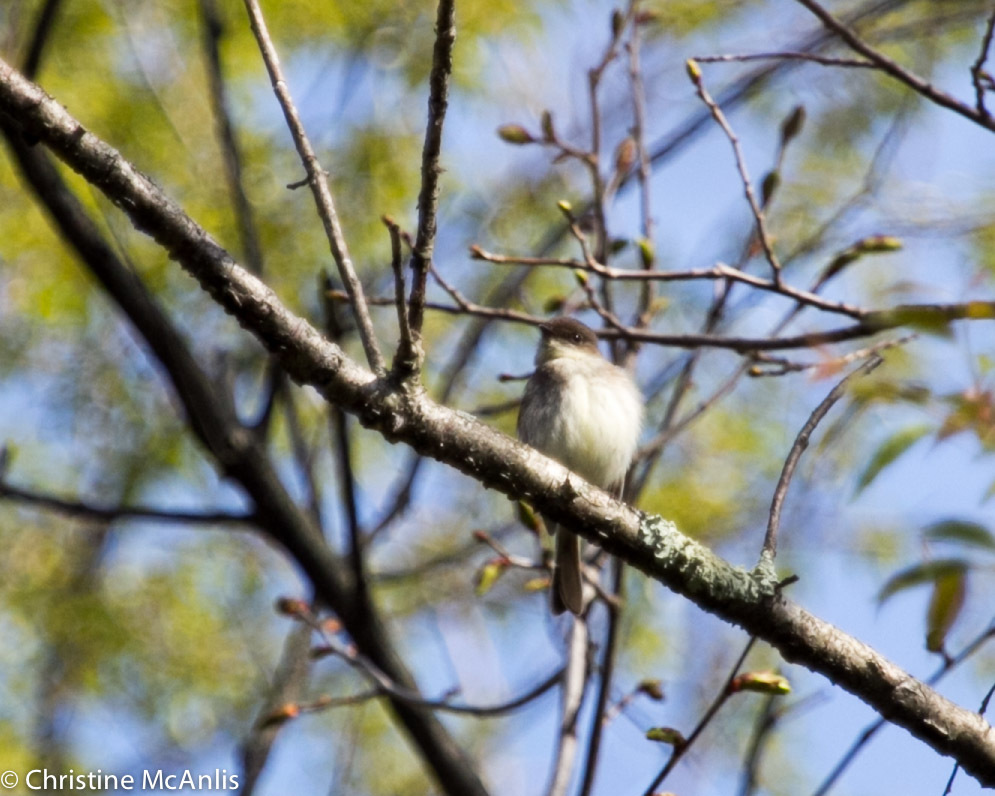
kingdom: Animalia
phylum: Chordata
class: Aves
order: Passeriformes
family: Tyrannidae
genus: Sayornis
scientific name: Sayornis phoebe
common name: Eastern phoebe
